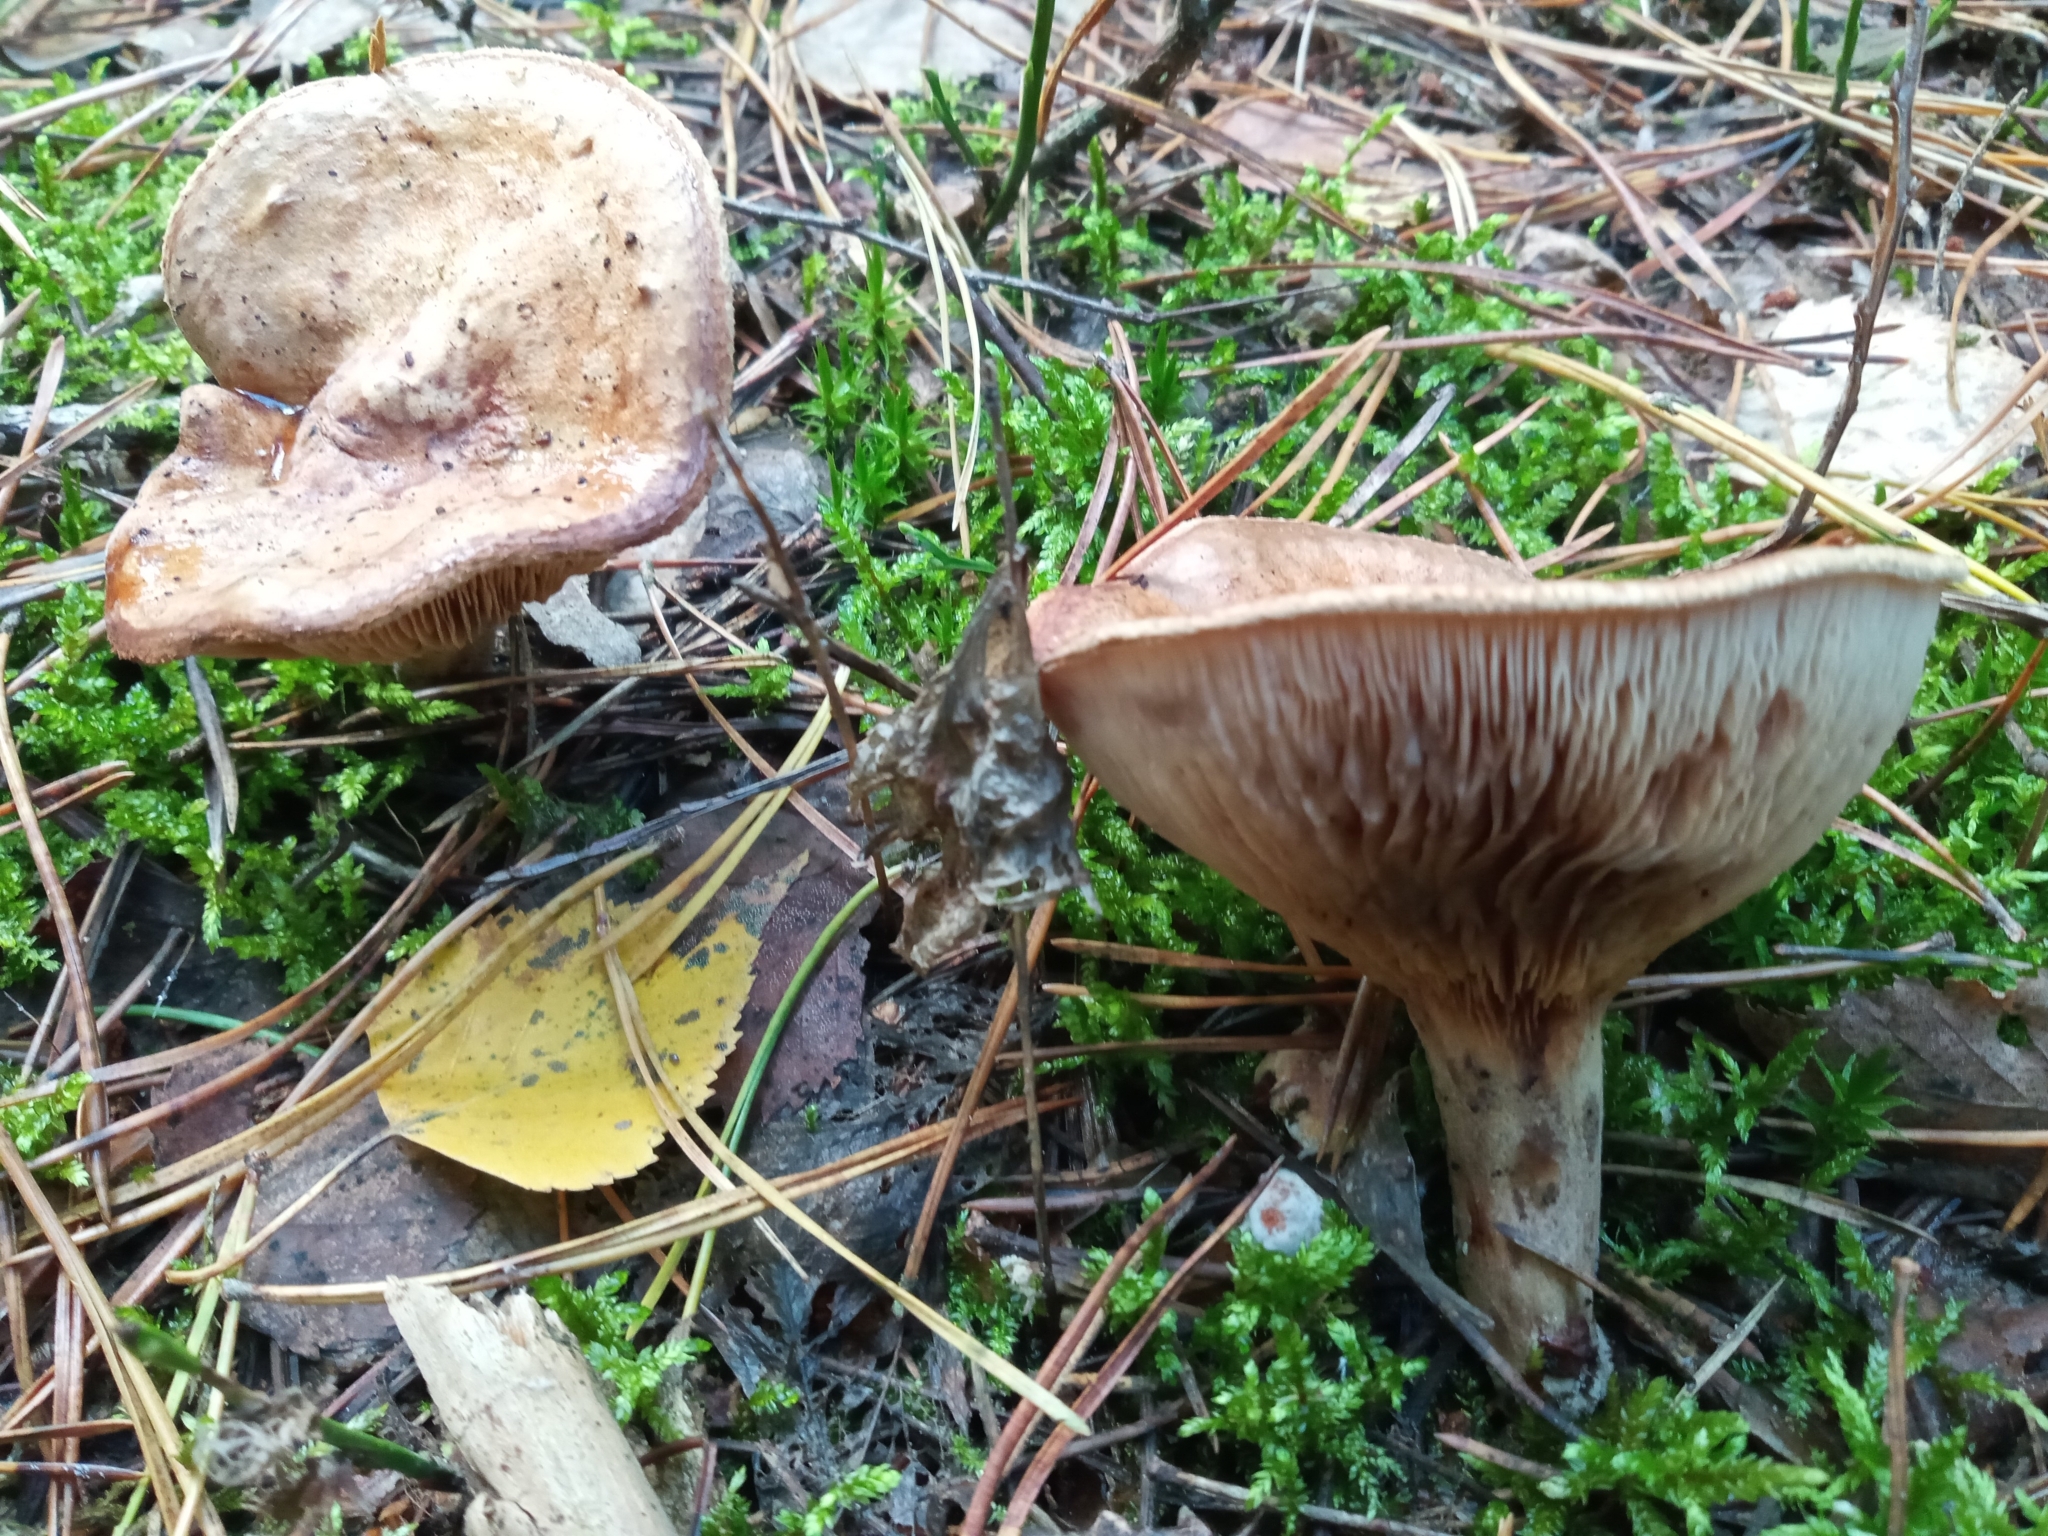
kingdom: Fungi
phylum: Basidiomycota
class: Agaricomycetes
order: Boletales
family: Paxillaceae
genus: Paxillus
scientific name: Paxillus involutus
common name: Brown roll rim
